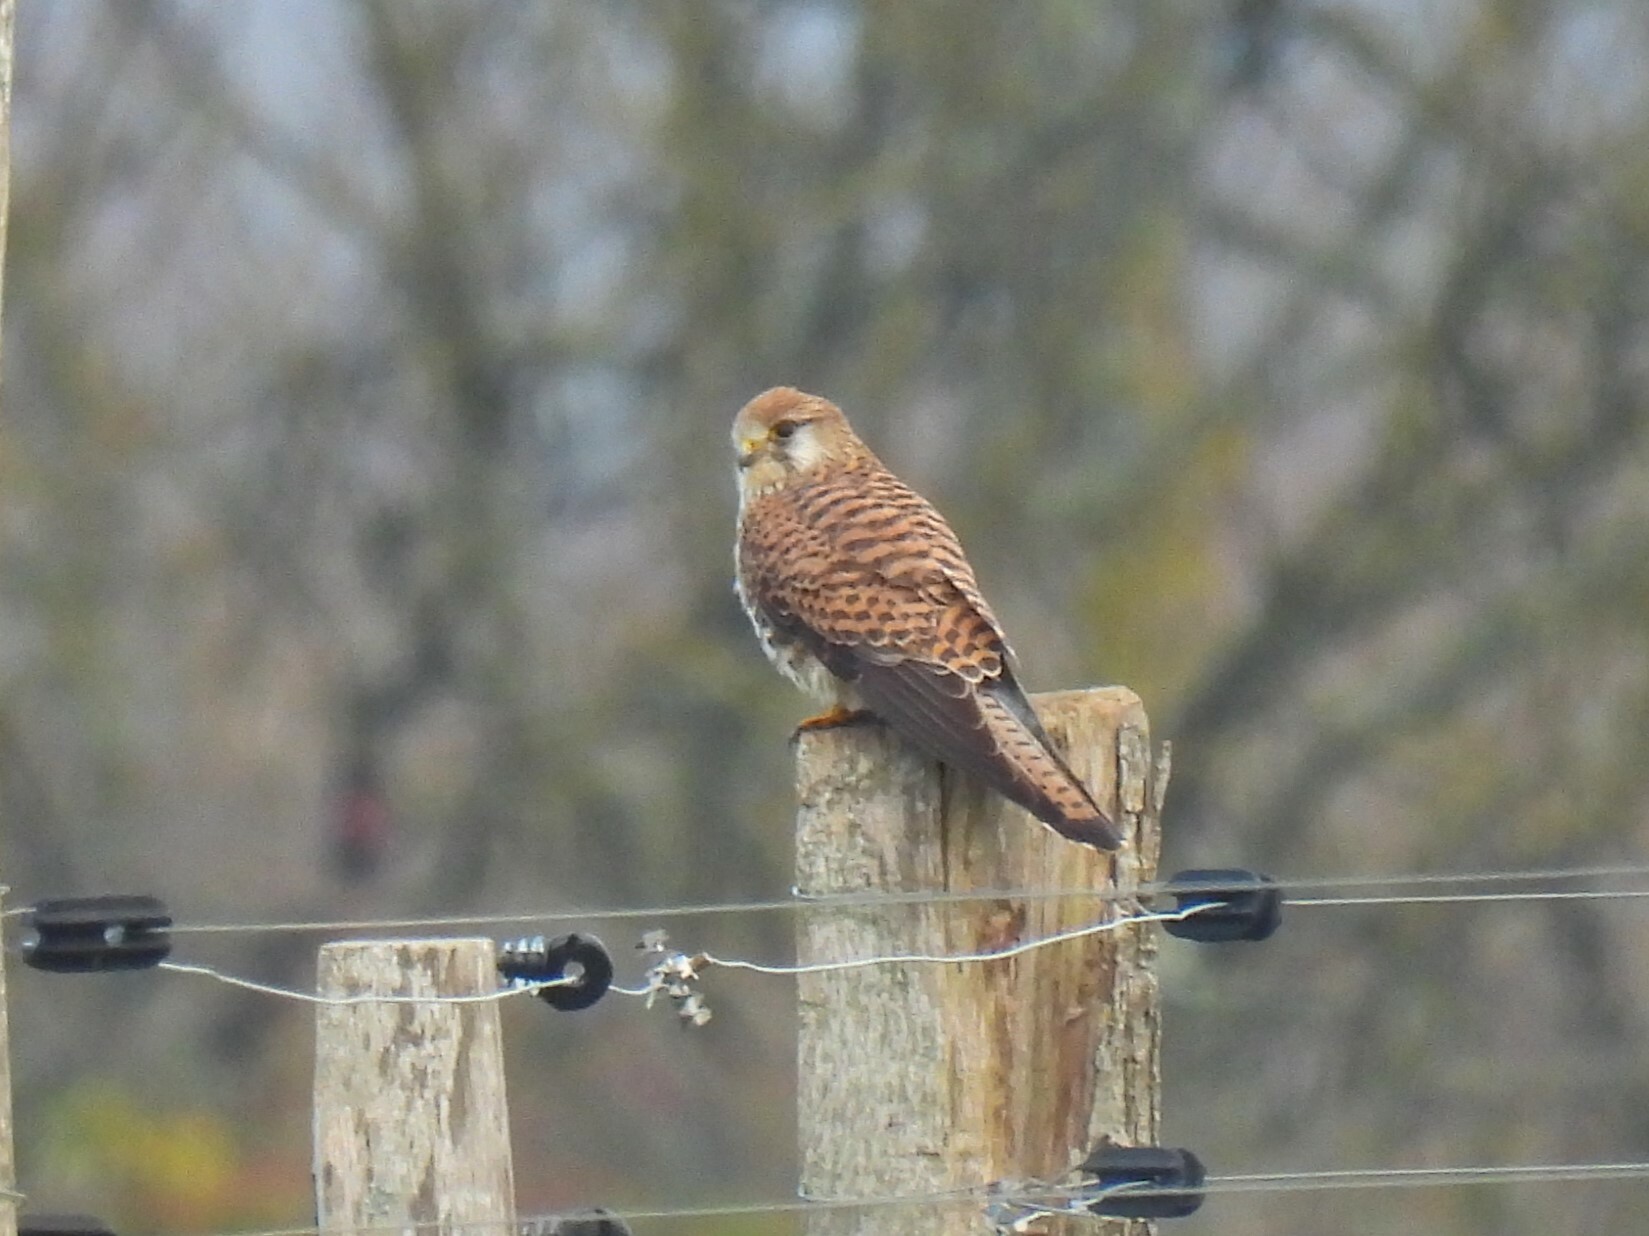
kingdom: Animalia
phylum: Chordata
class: Aves
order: Falconiformes
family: Falconidae
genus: Falco
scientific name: Falco tinnunculus
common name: Common kestrel
